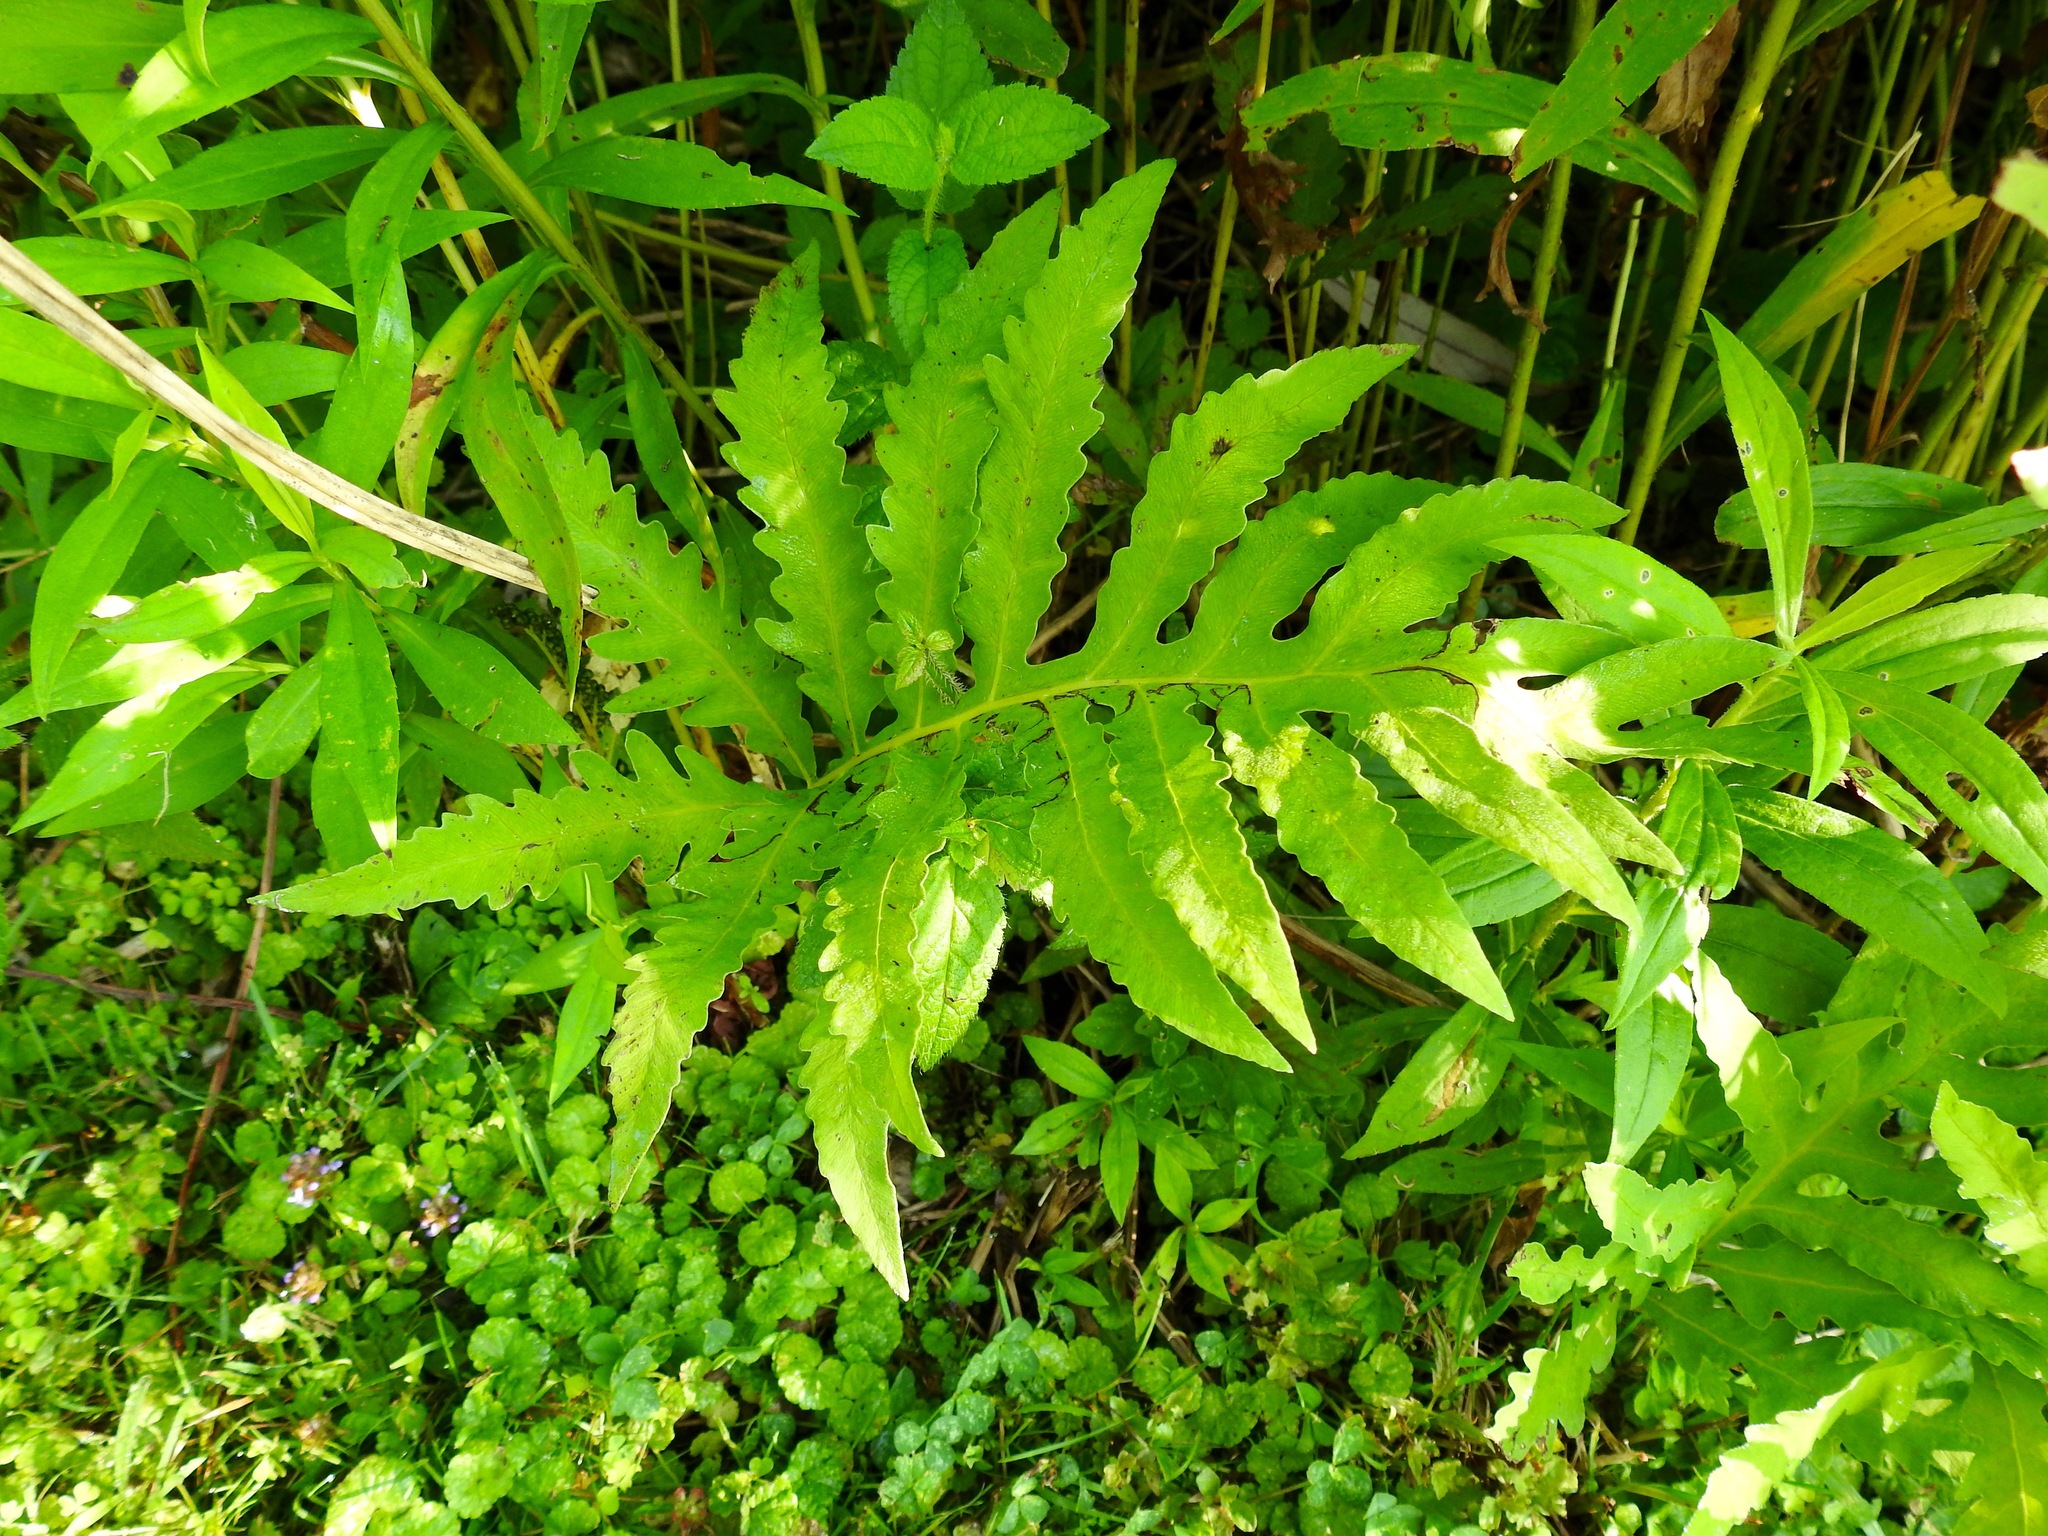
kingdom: Plantae
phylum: Tracheophyta
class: Polypodiopsida
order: Polypodiales
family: Onocleaceae
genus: Onoclea
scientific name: Onoclea sensibilis
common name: Sensitive fern
